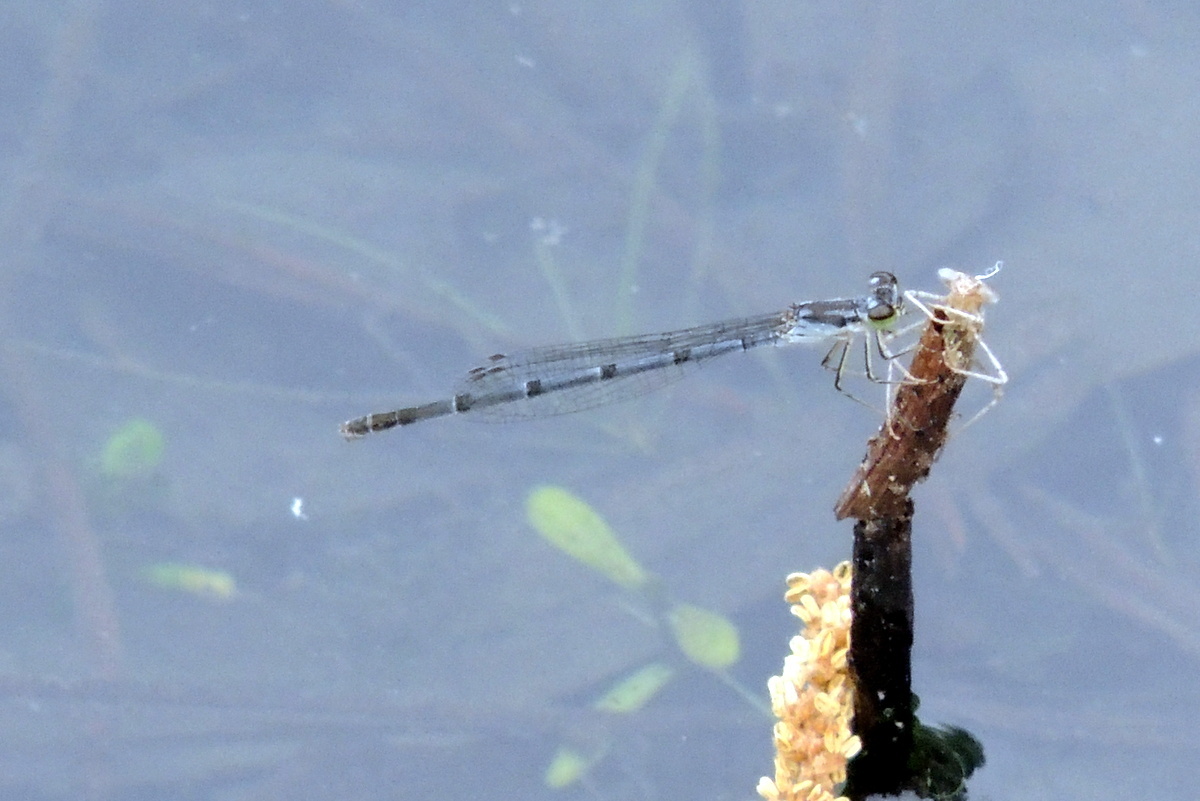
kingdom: Animalia
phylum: Arthropoda
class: Insecta
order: Odonata
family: Coenagrionidae
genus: Ischnura
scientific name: Ischnura posita
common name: Fragile forktail
